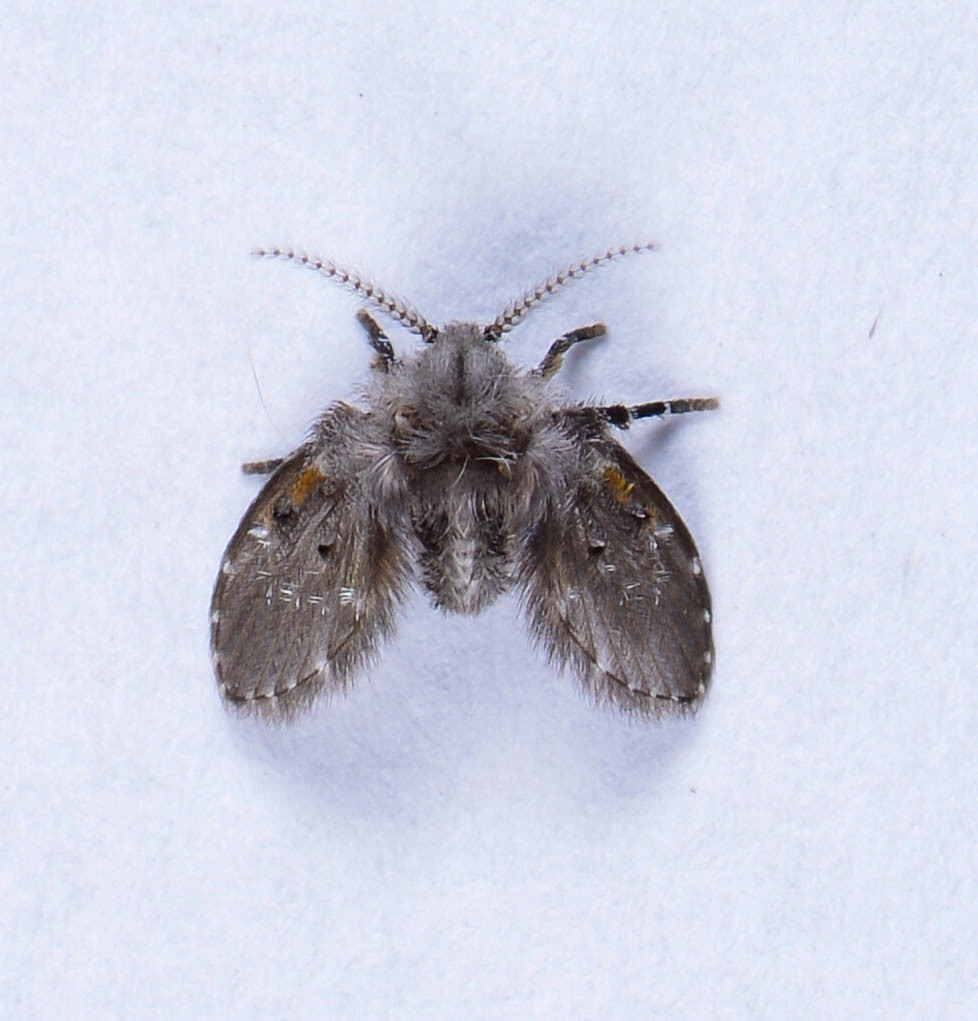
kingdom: Animalia
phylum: Arthropoda
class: Insecta
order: Diptera
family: Psychodidae
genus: Clogmia
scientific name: Clogmia albipunctatus
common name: White-spotted moth fly
